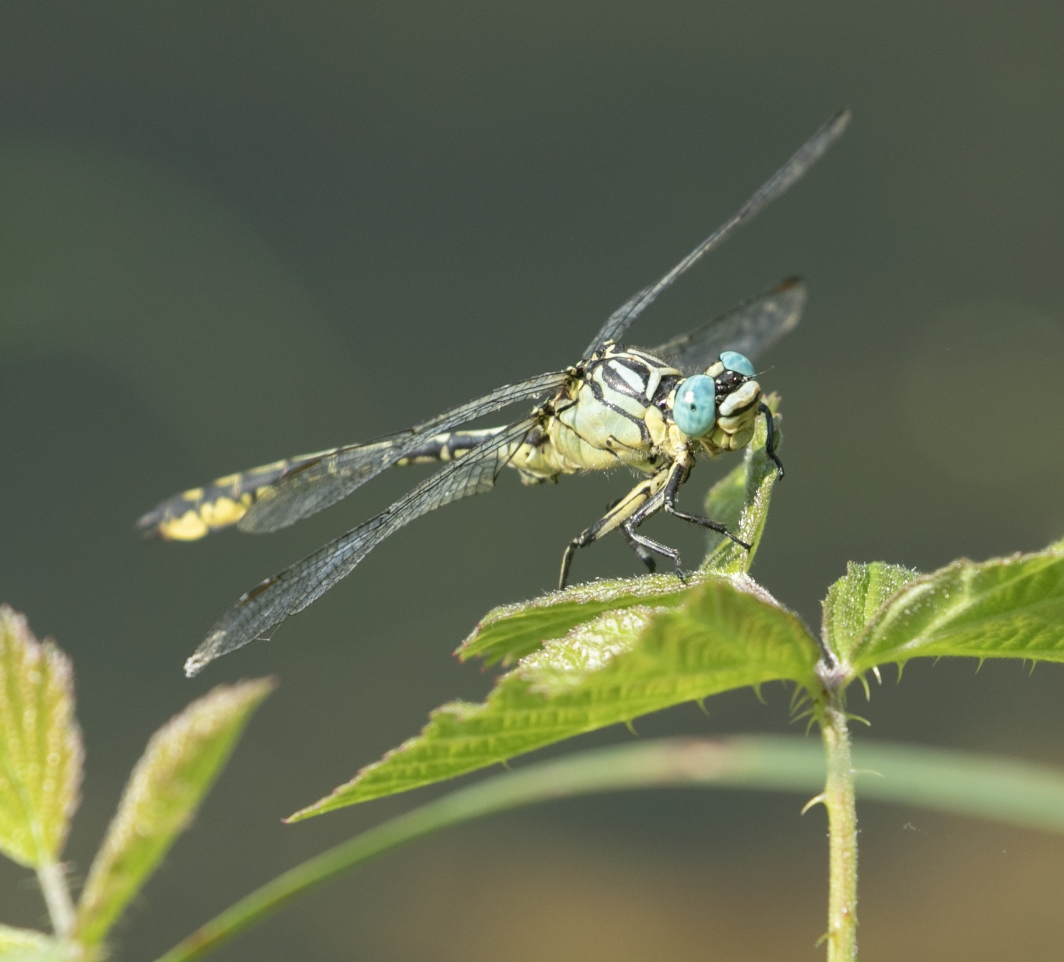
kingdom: Animalia
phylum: Arthropoda
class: Insecta
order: Odonata
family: Gomphidae
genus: Stylurus
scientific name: Stylurus flavipes
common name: River clubtail
